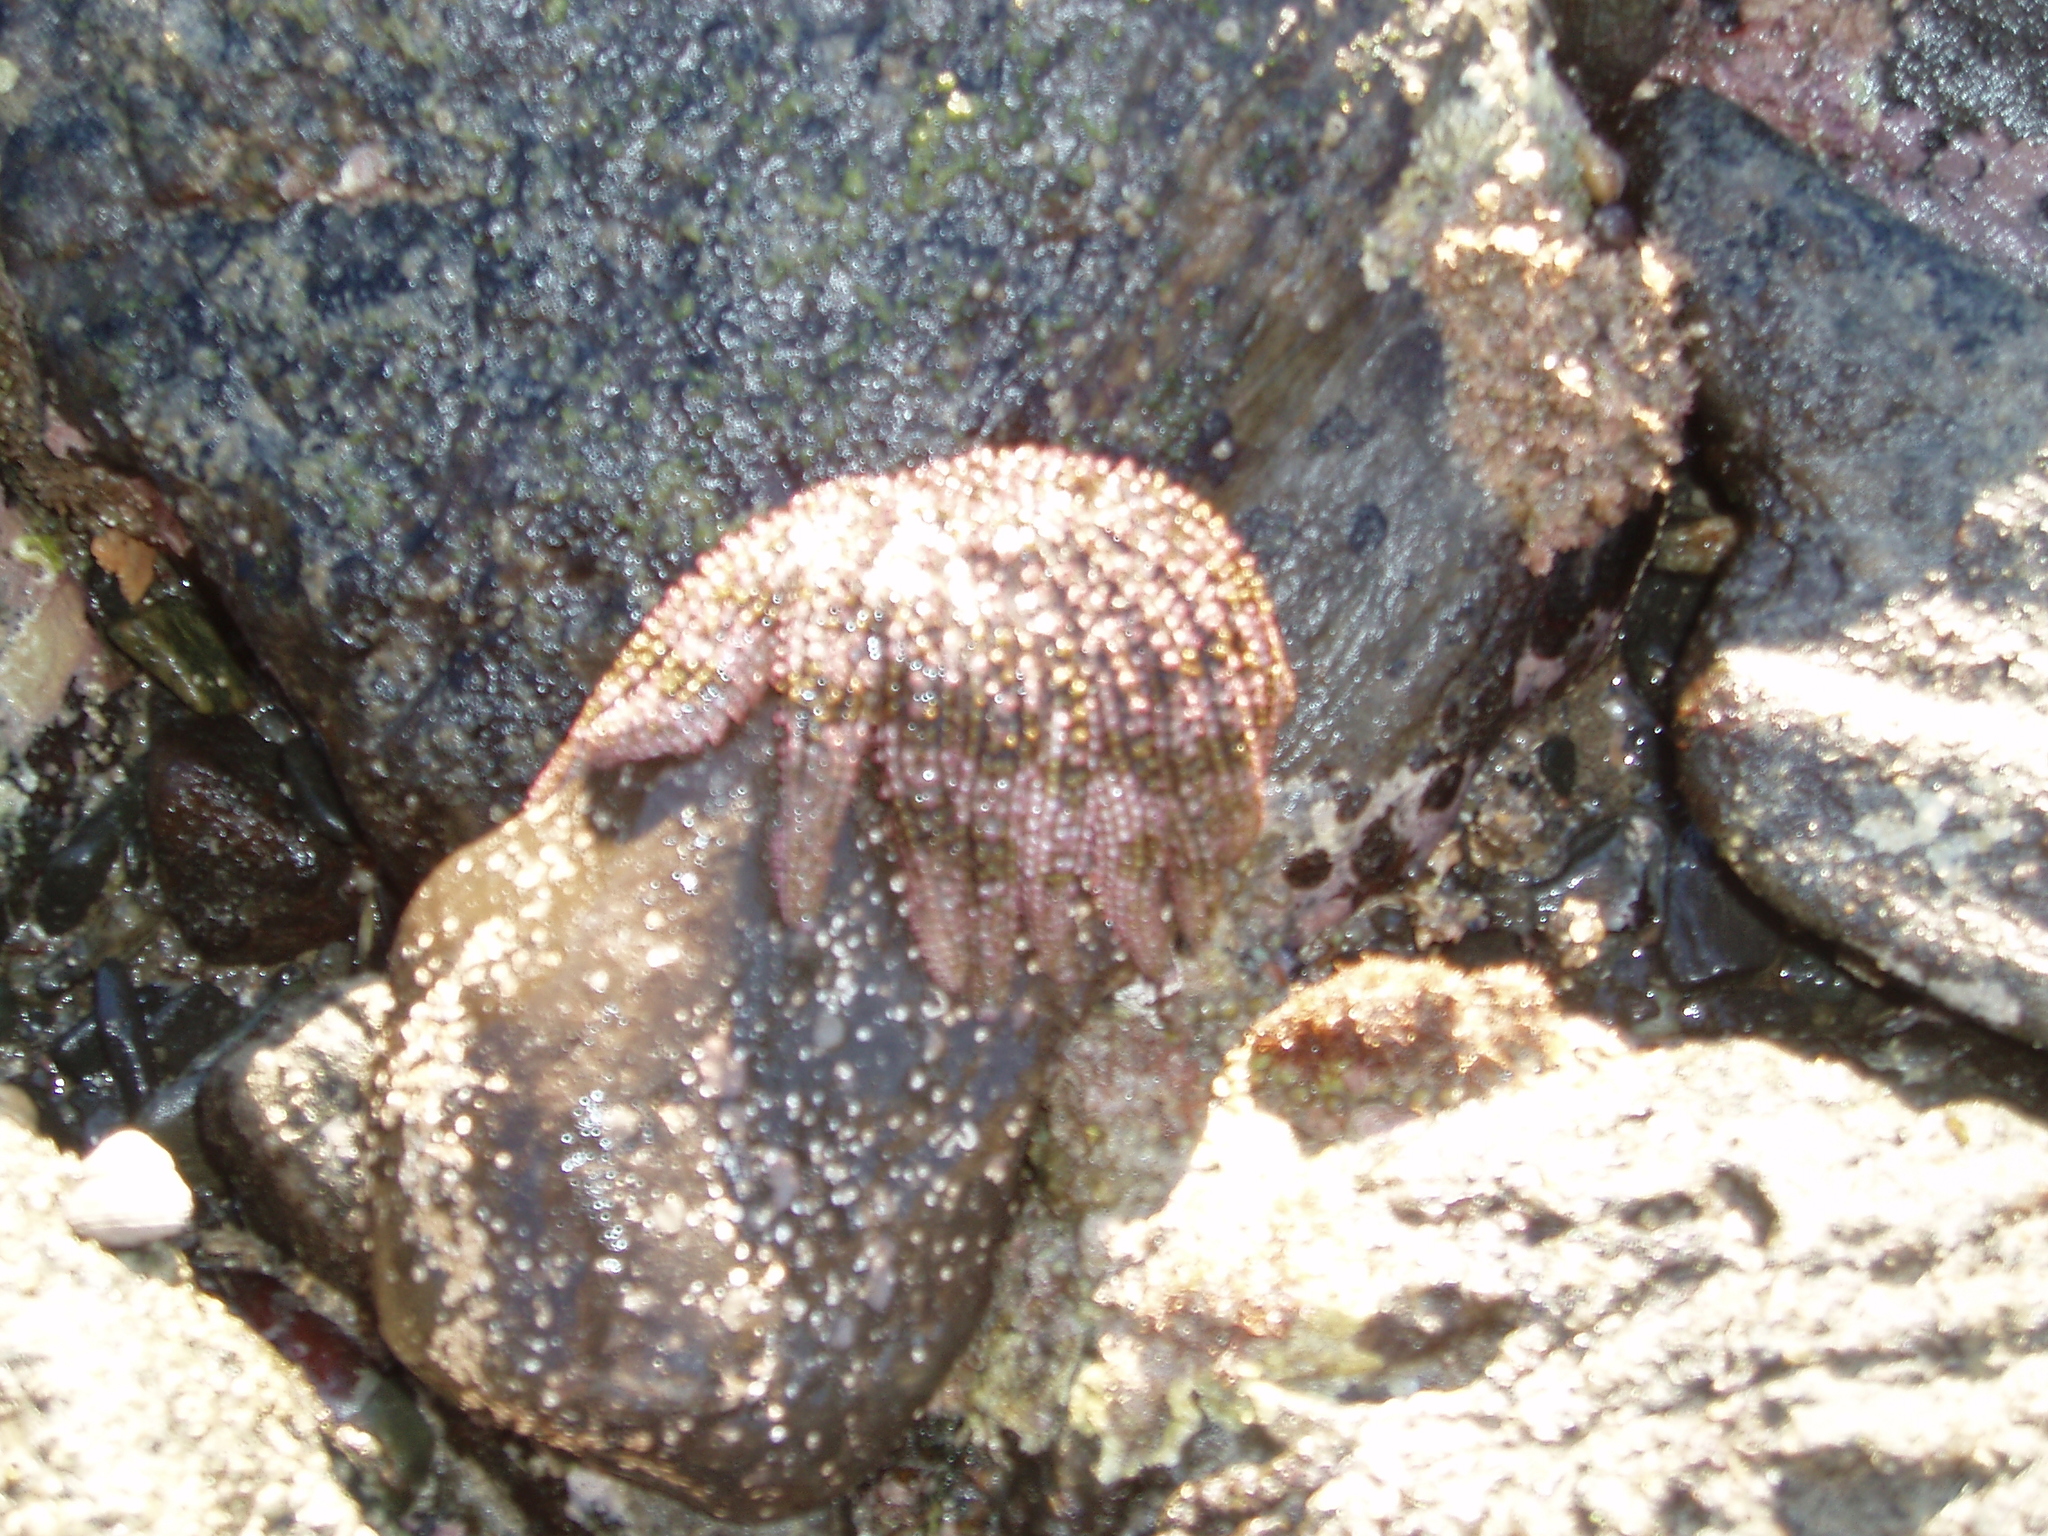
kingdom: Animalia
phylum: Echinodermata
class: Asteroidea
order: Forcipulatida
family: Heliasteridae
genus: Heliaster
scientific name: Heliaster helianthus
